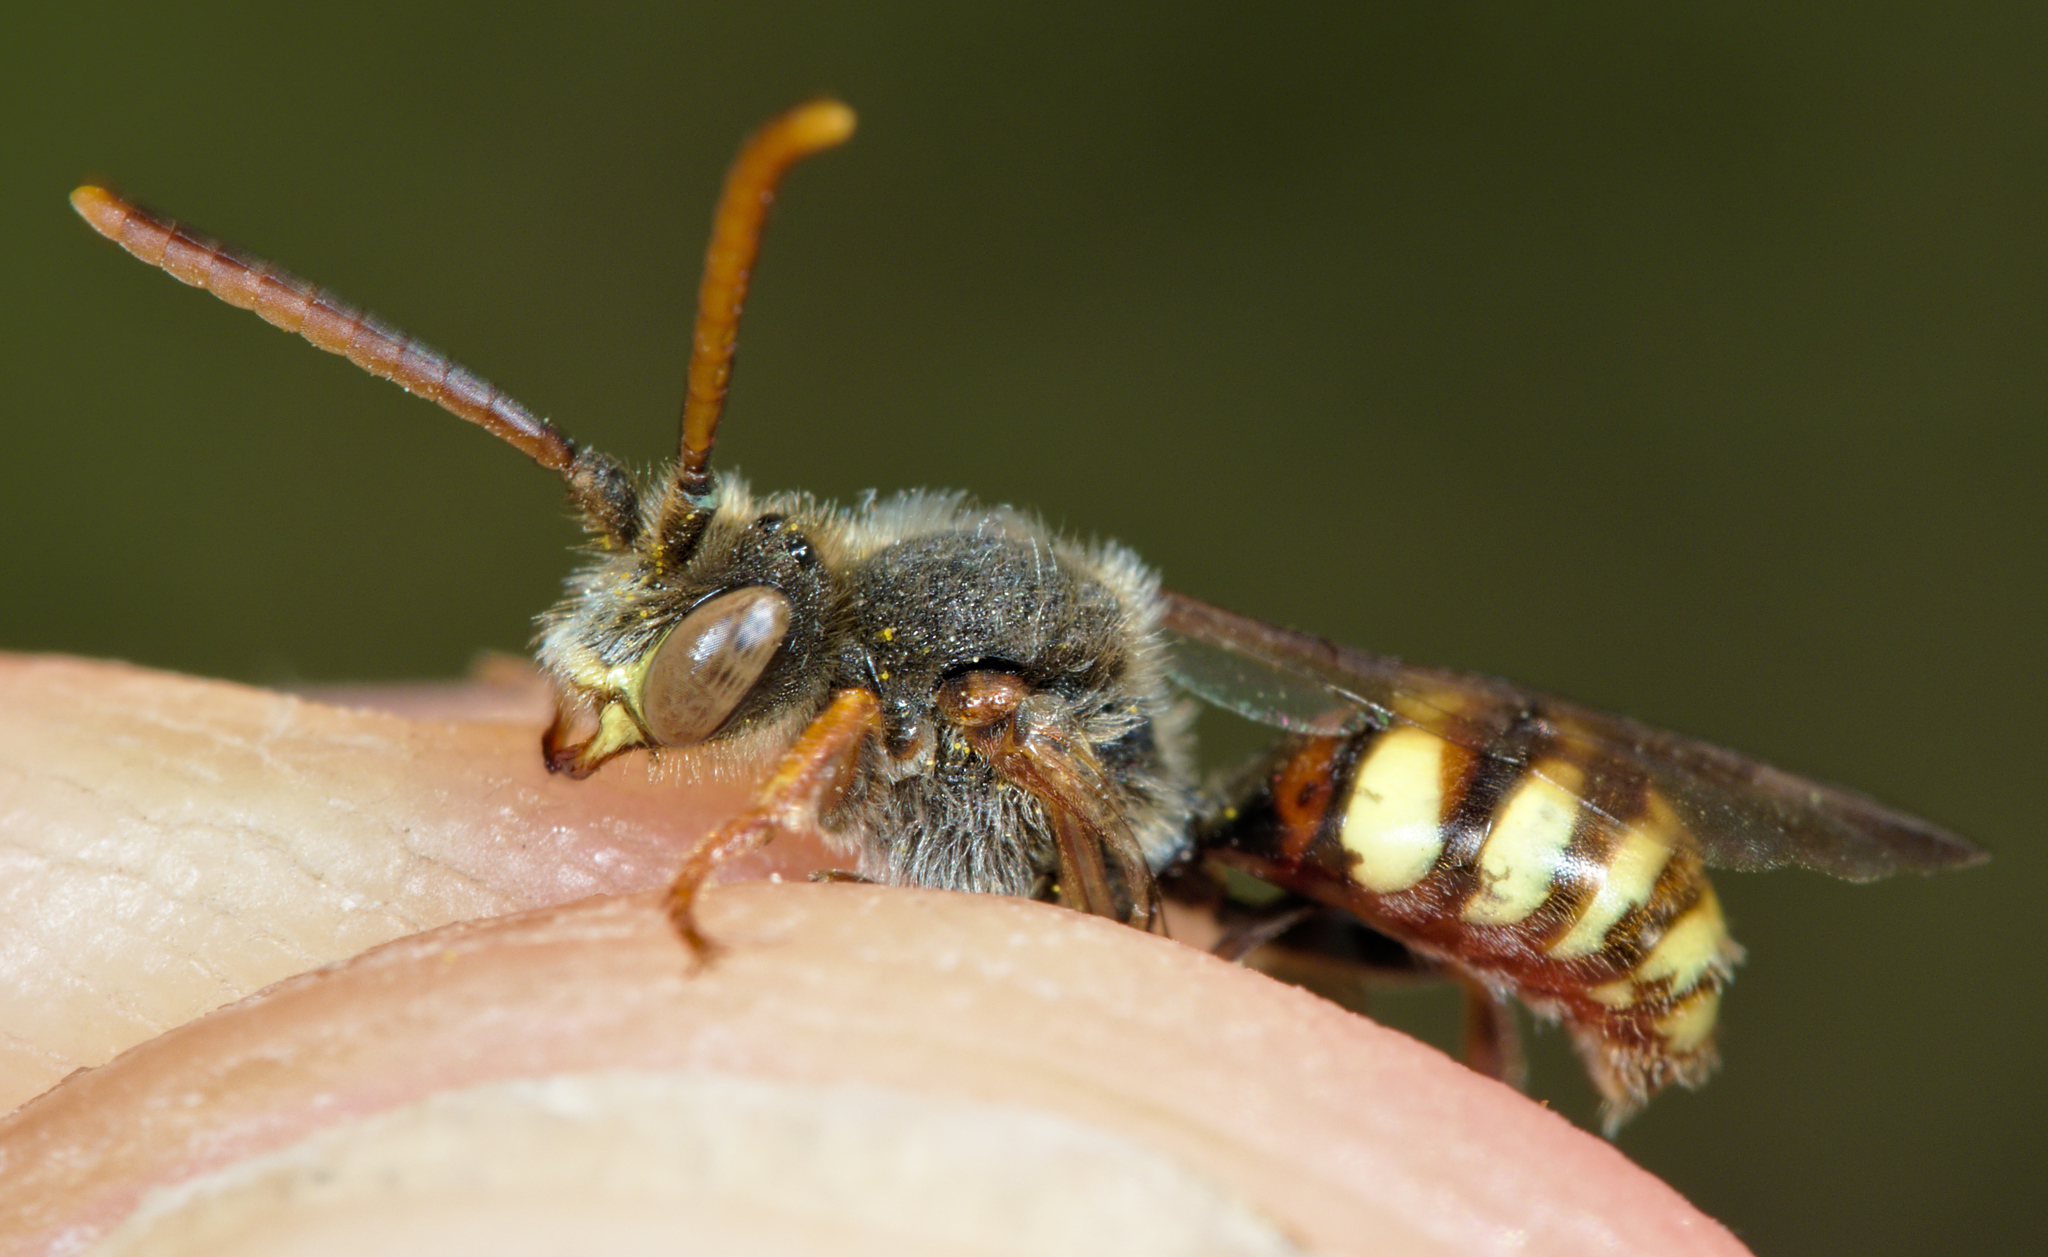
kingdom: Animalia
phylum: Arthropoda
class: Insecta
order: Hymenoptera
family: Apidae
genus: Nomada
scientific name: Nomada ruficornis
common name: Fork-jawed nomad bee
